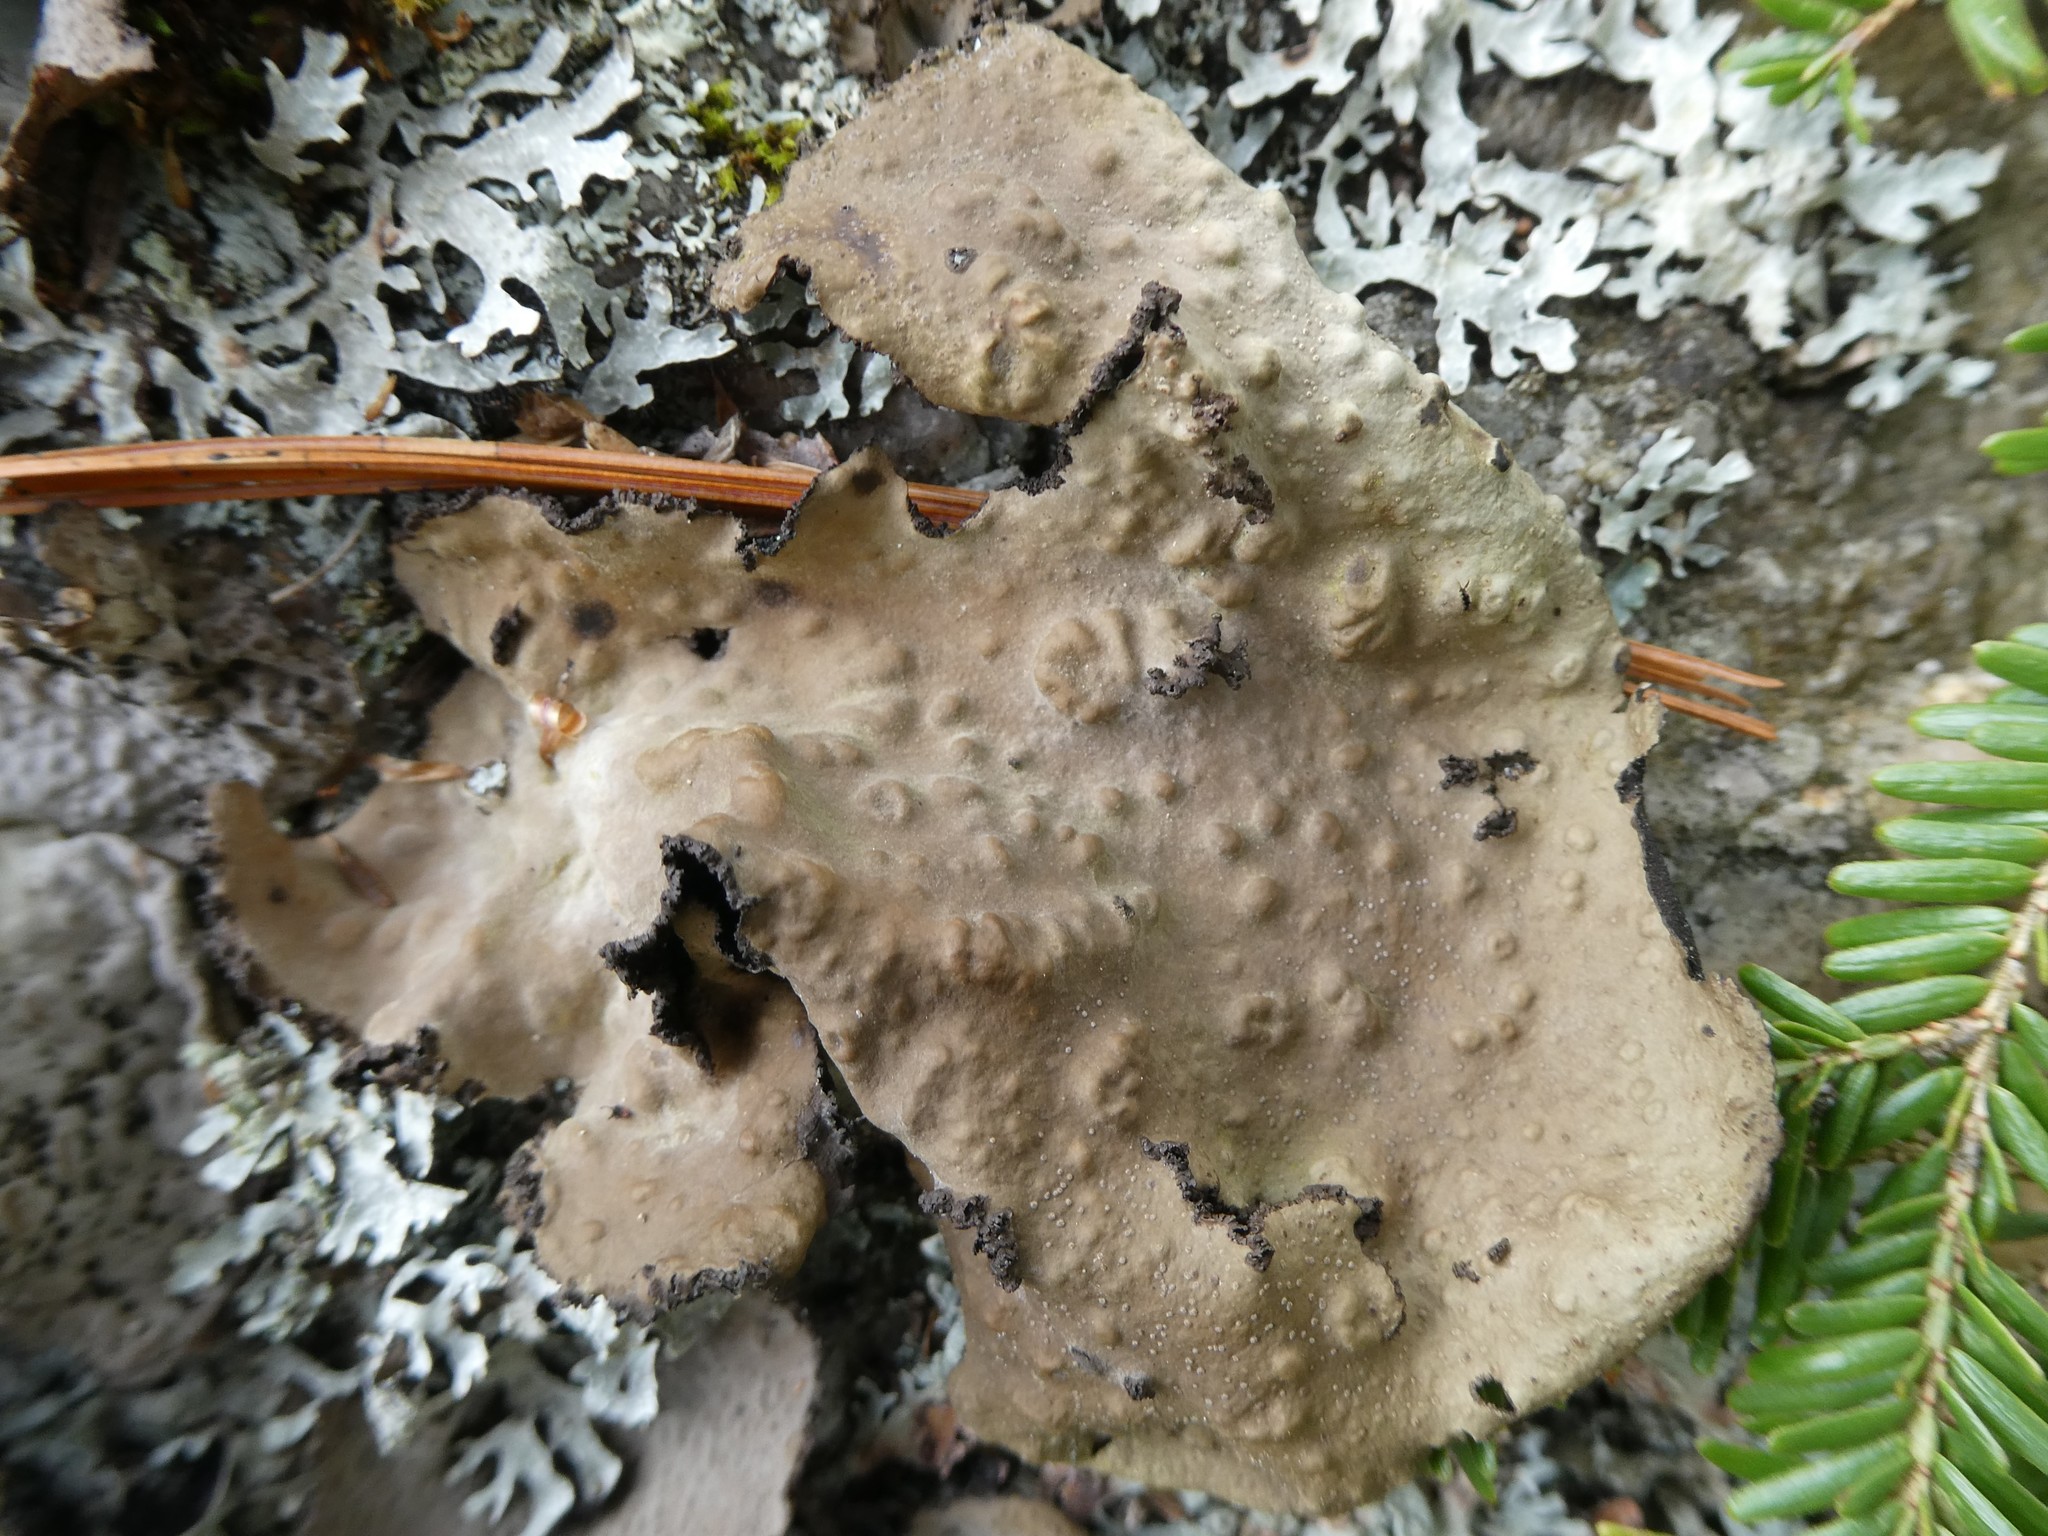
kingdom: Fungi
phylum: Ascomycota
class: Lecanoromycetes
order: Umbilicariales
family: Umbilicariaceae
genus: Lasallia
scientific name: Lasallia pensylvanica
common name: Blackened toadskin lichen
